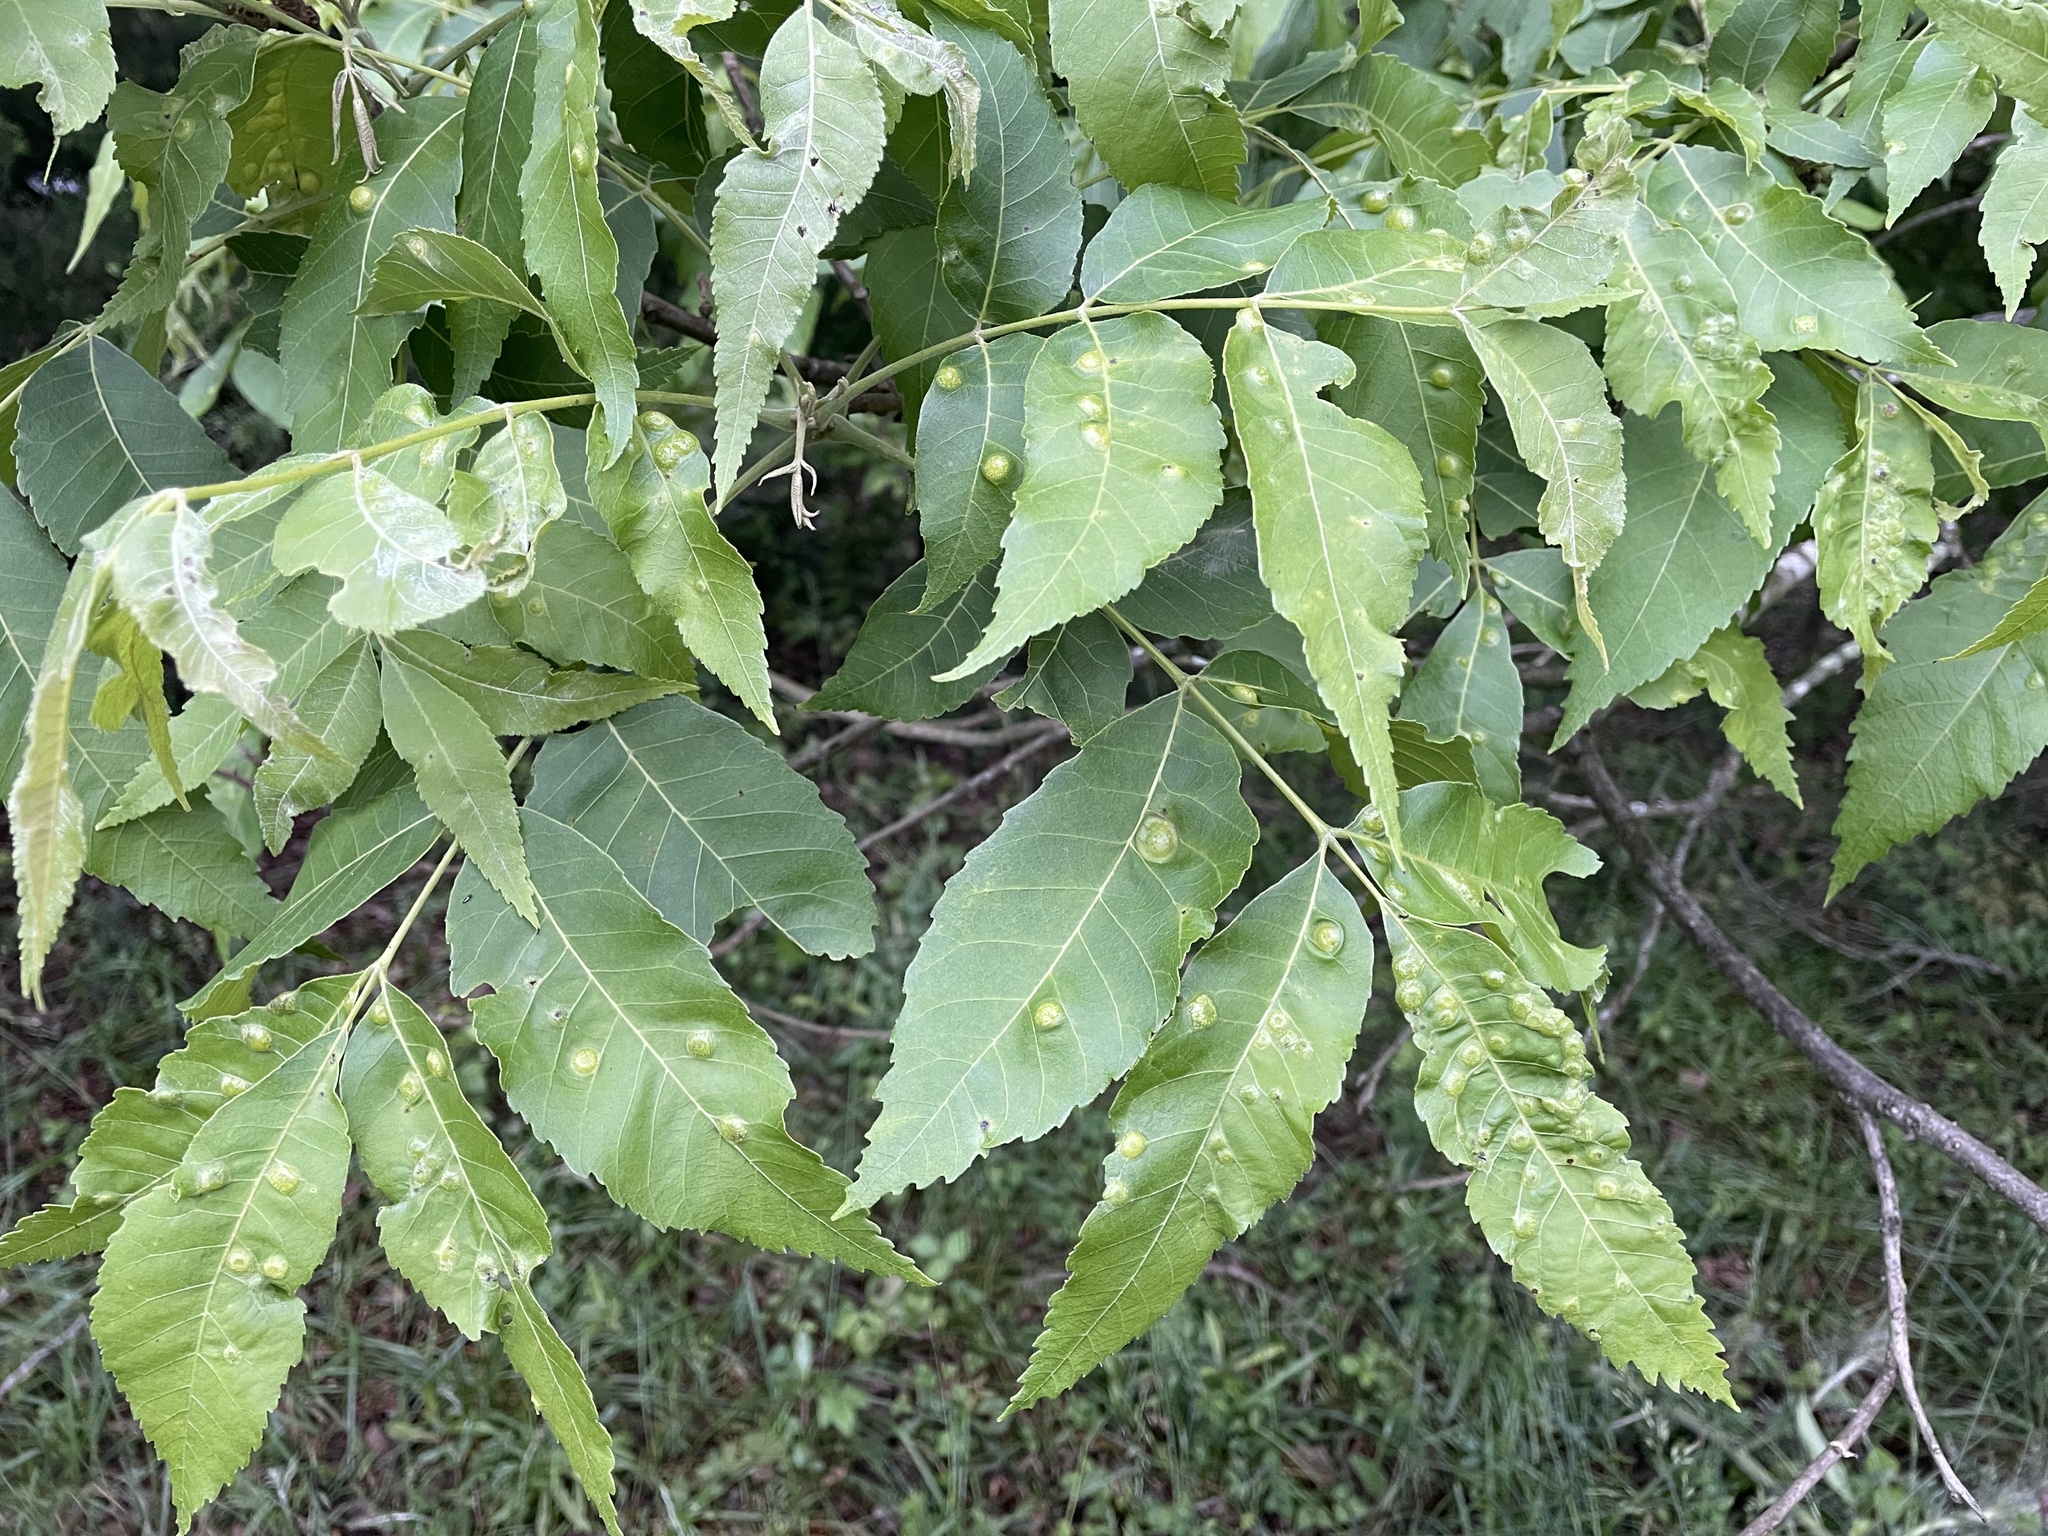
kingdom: Animalia
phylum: Arthropoda
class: Insecta
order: Hemiptera
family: Phylloxeridae
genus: Phylloxera
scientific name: Phylloxera russellae
